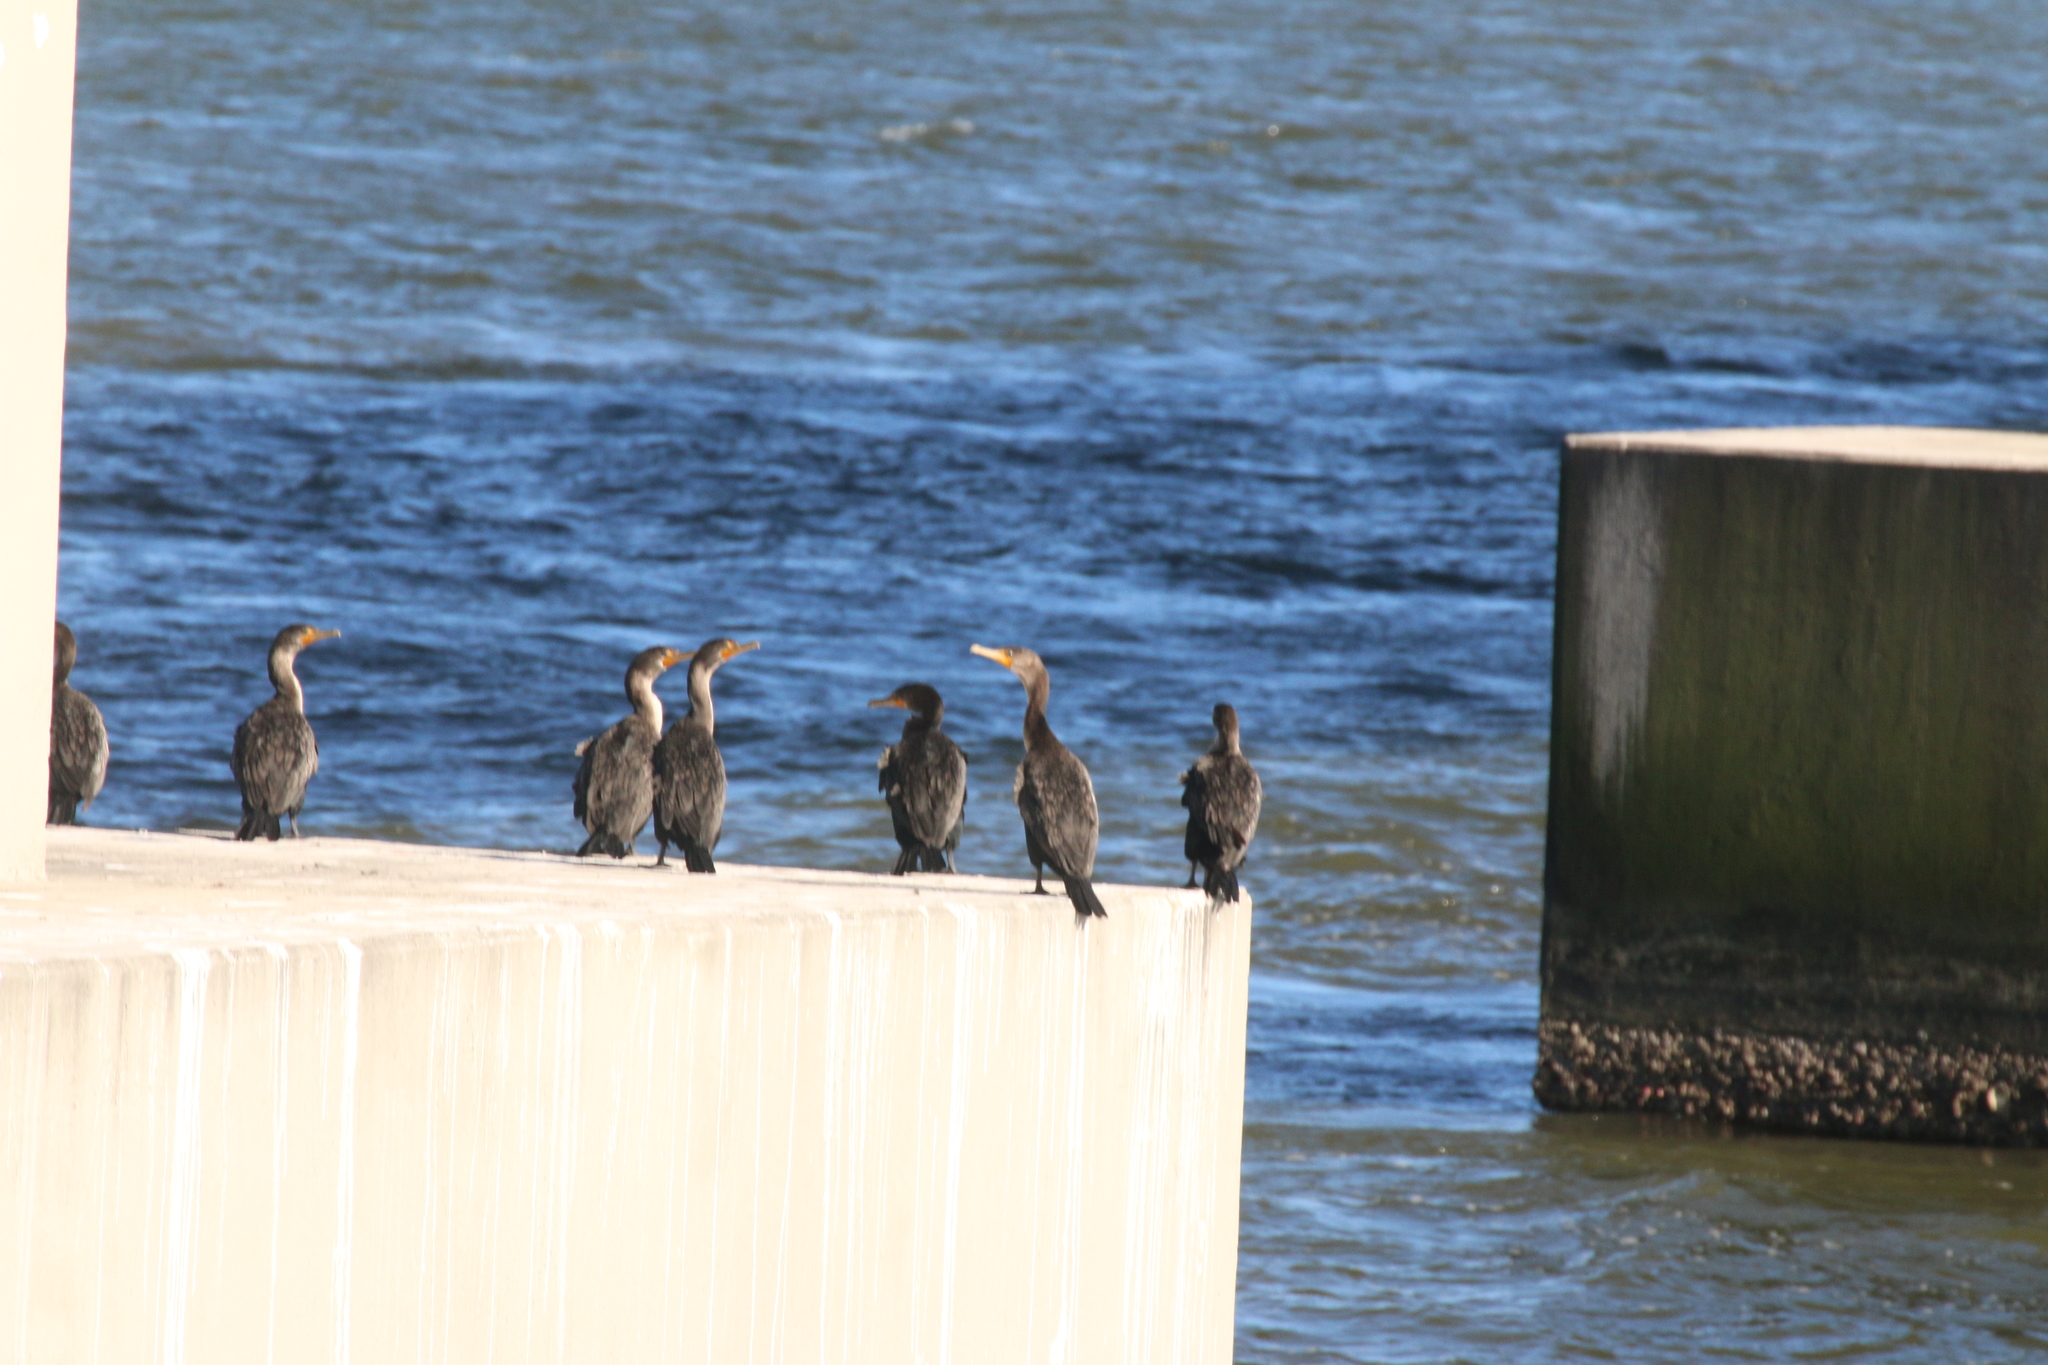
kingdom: Animalia
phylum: Chordata
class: Aves
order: Suliformes
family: Phalacrocoracidae
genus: Phalacrocorax
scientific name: Phalacrocorax auritus
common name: Double-crested cormorant
